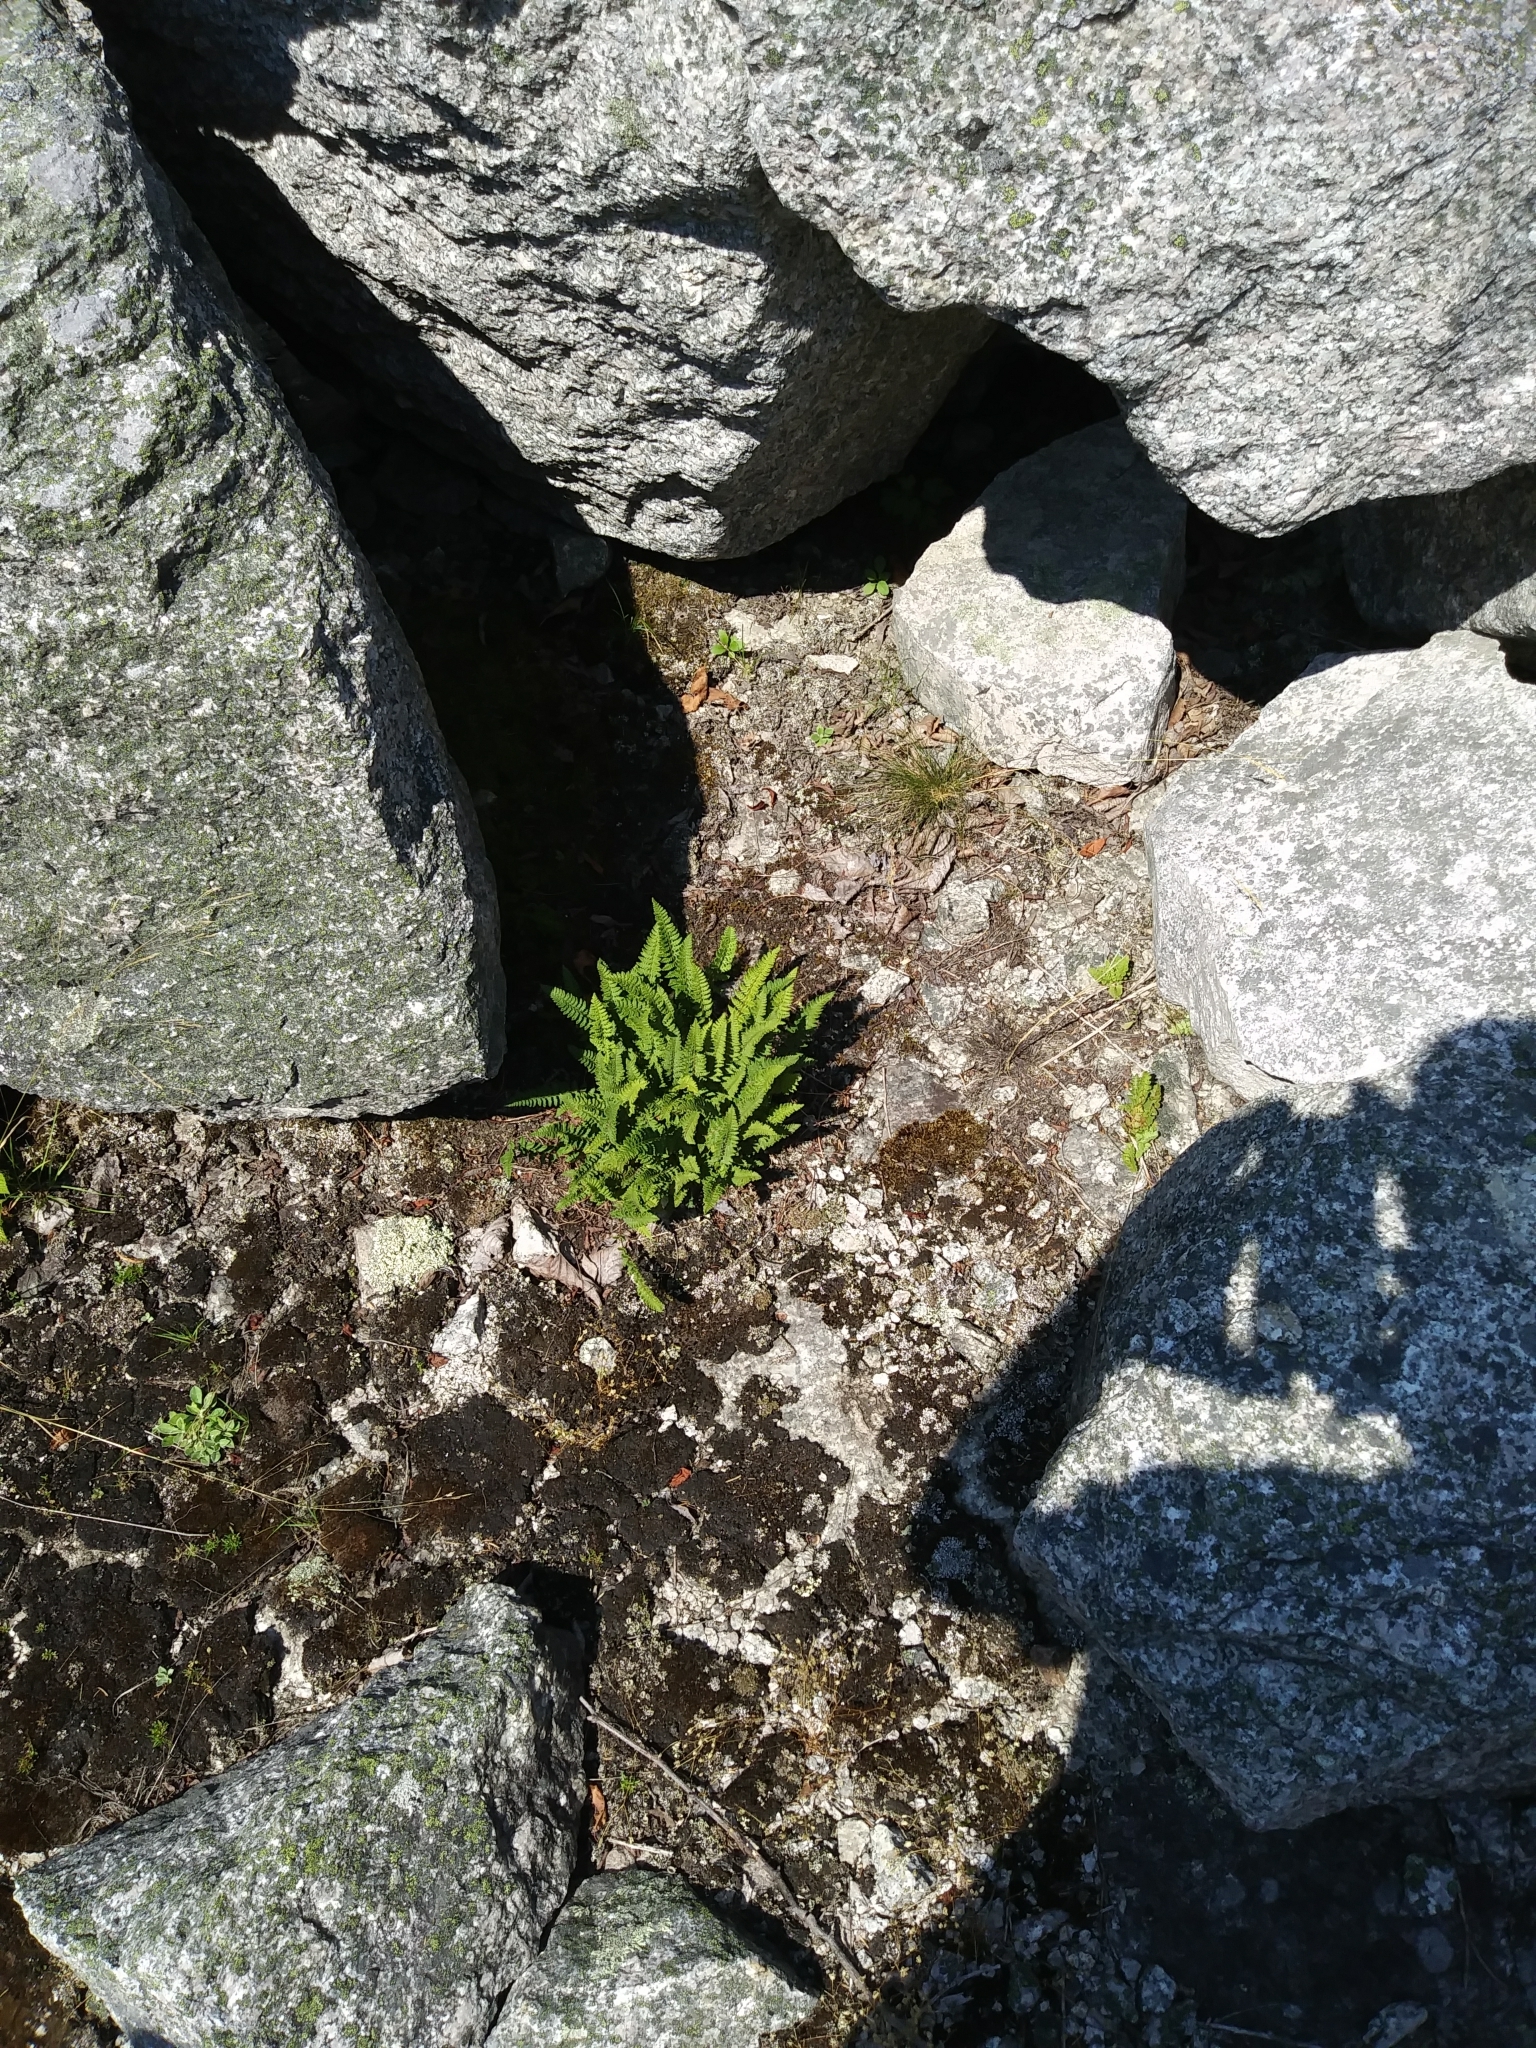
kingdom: Plantae
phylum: Tracheophyta
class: Polypodiopsida
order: Polypodiales
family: Woodsiaceae
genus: Woodsia
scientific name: Woodsia ilvensis
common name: Fragrant woodsia
